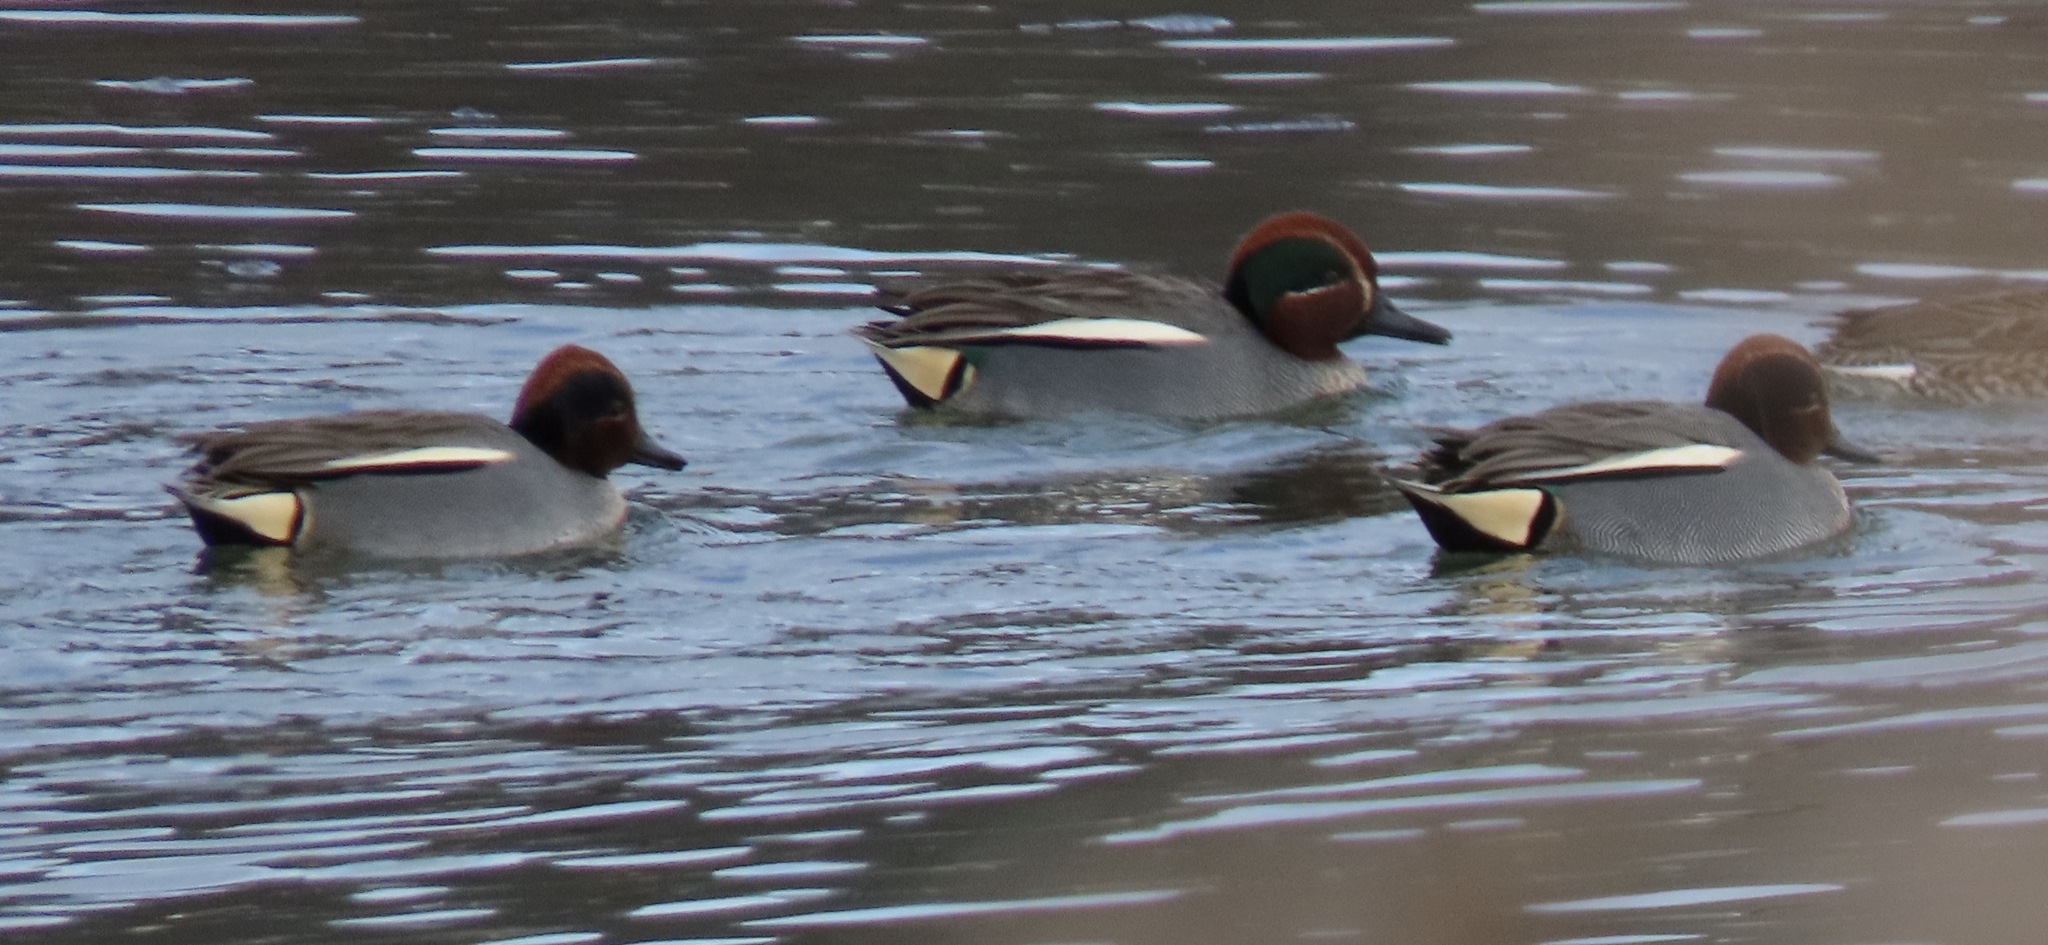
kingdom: Animalia
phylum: Chordata
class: Aves
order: Anseriformes
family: Anatidae
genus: Anas
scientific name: Anas crecca
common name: Eurasian teal
